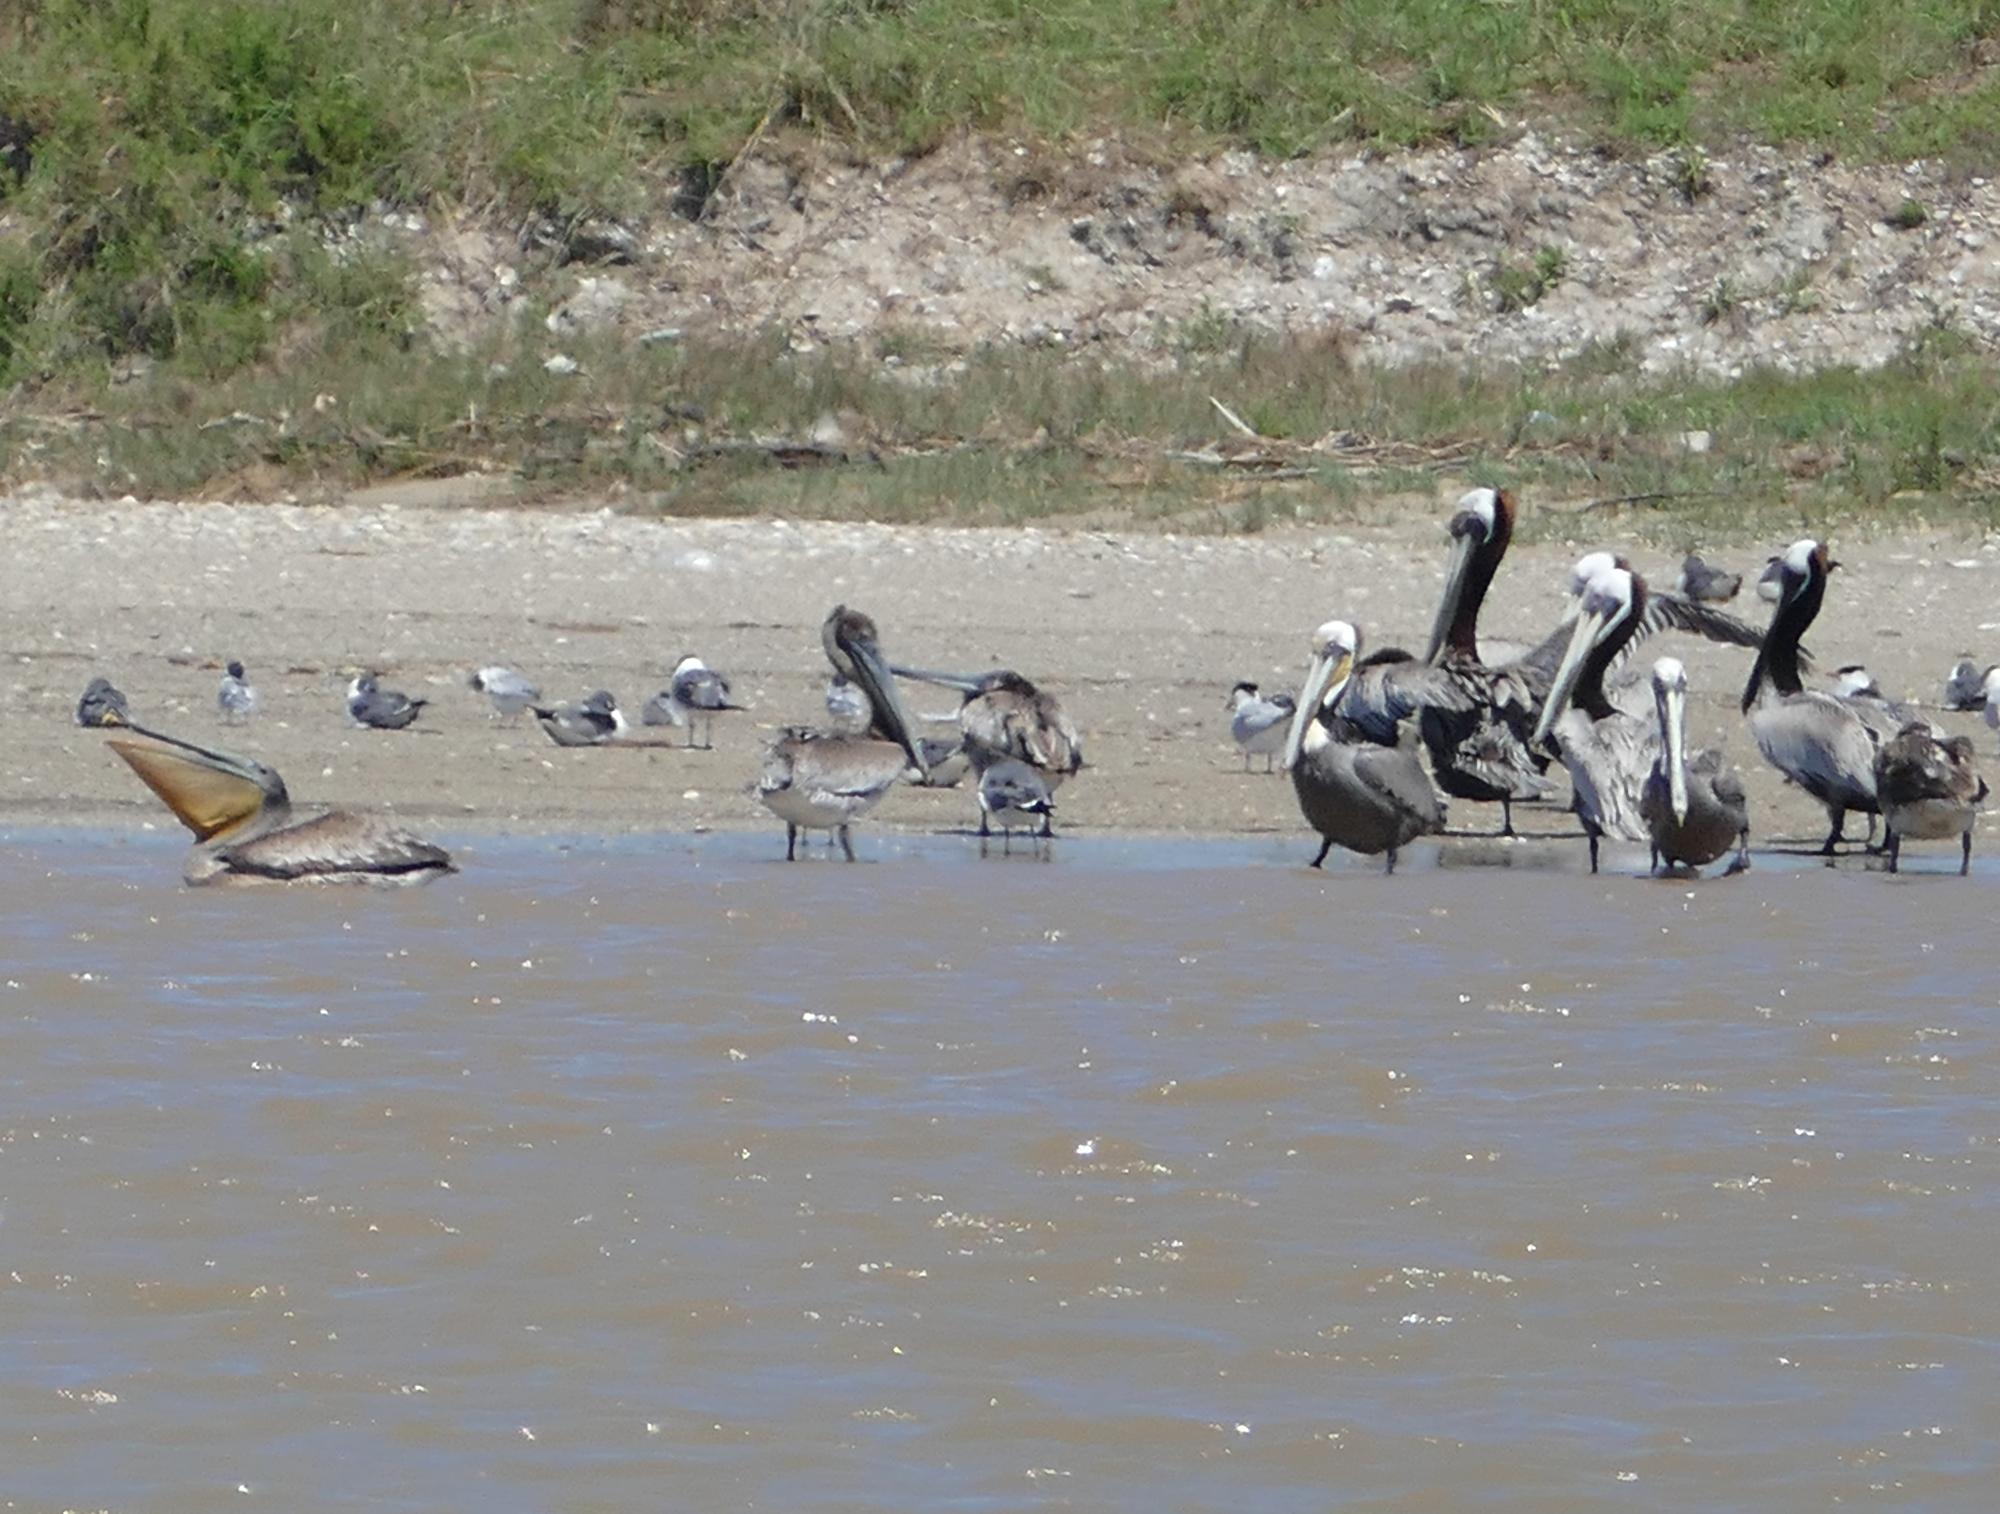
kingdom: Animalia
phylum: Chordata
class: Aves
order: Pelecaniformes
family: Pelecanidae
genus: Pelecanus
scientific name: Pelecanus occidentalis
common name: Brown pelican
